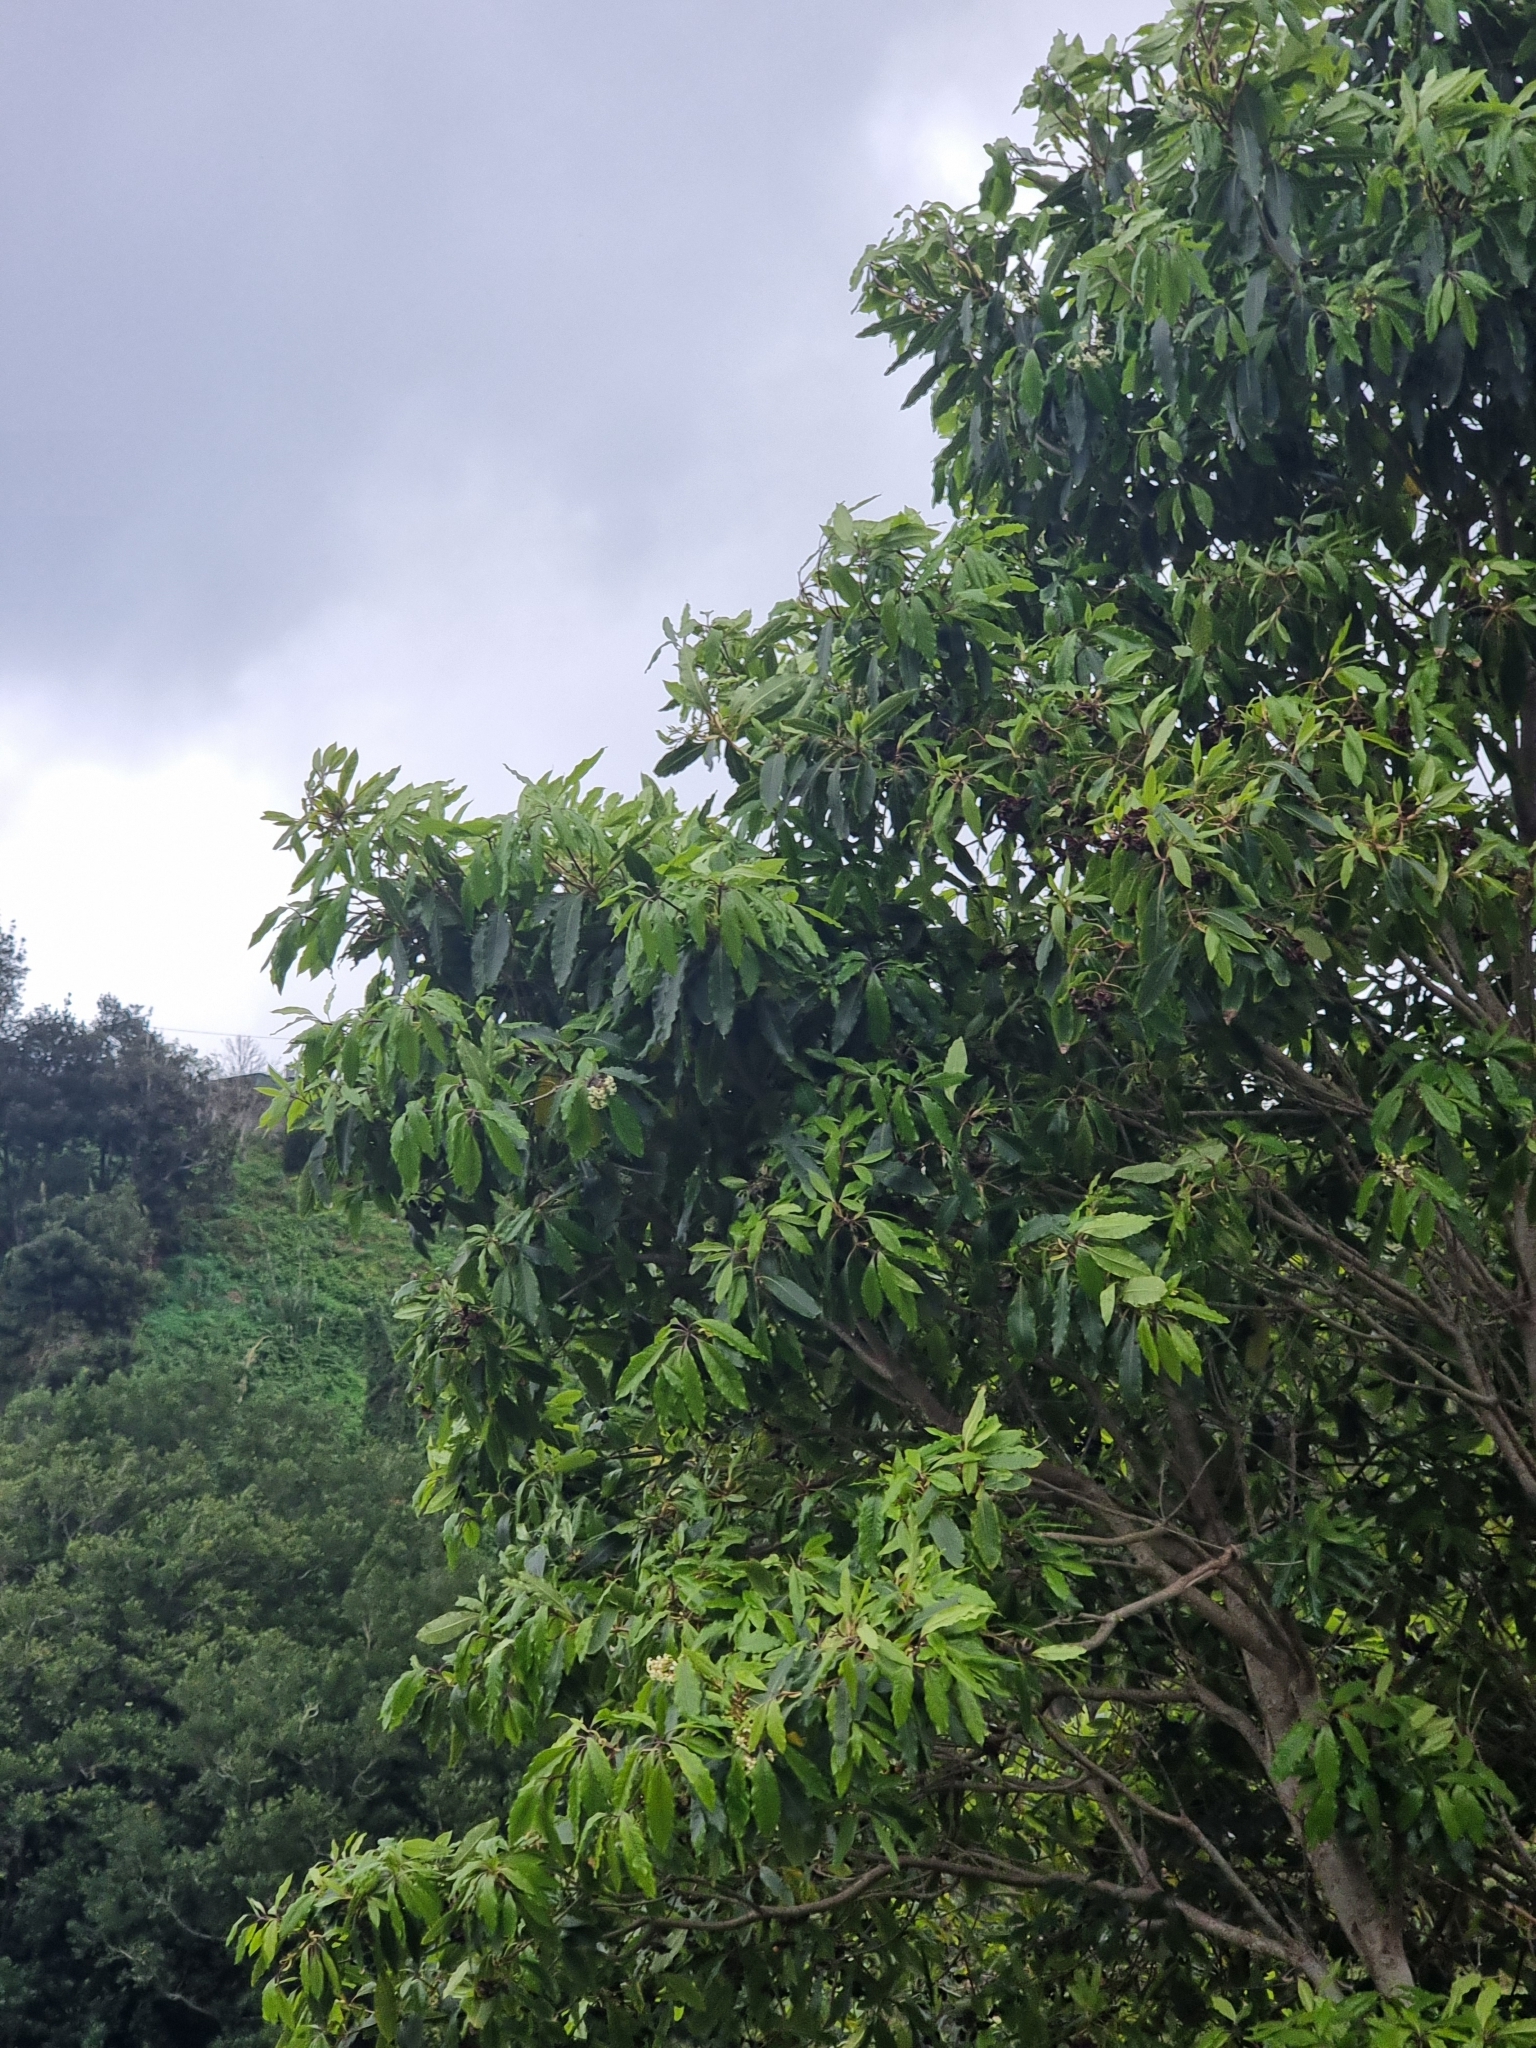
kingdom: Plantae
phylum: Tracheophyta
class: Magnoliopsida
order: Apiales
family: Pittosporaceae
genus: Pittosporum
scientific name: Pittosporum undulatum
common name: Australian cheesewood
